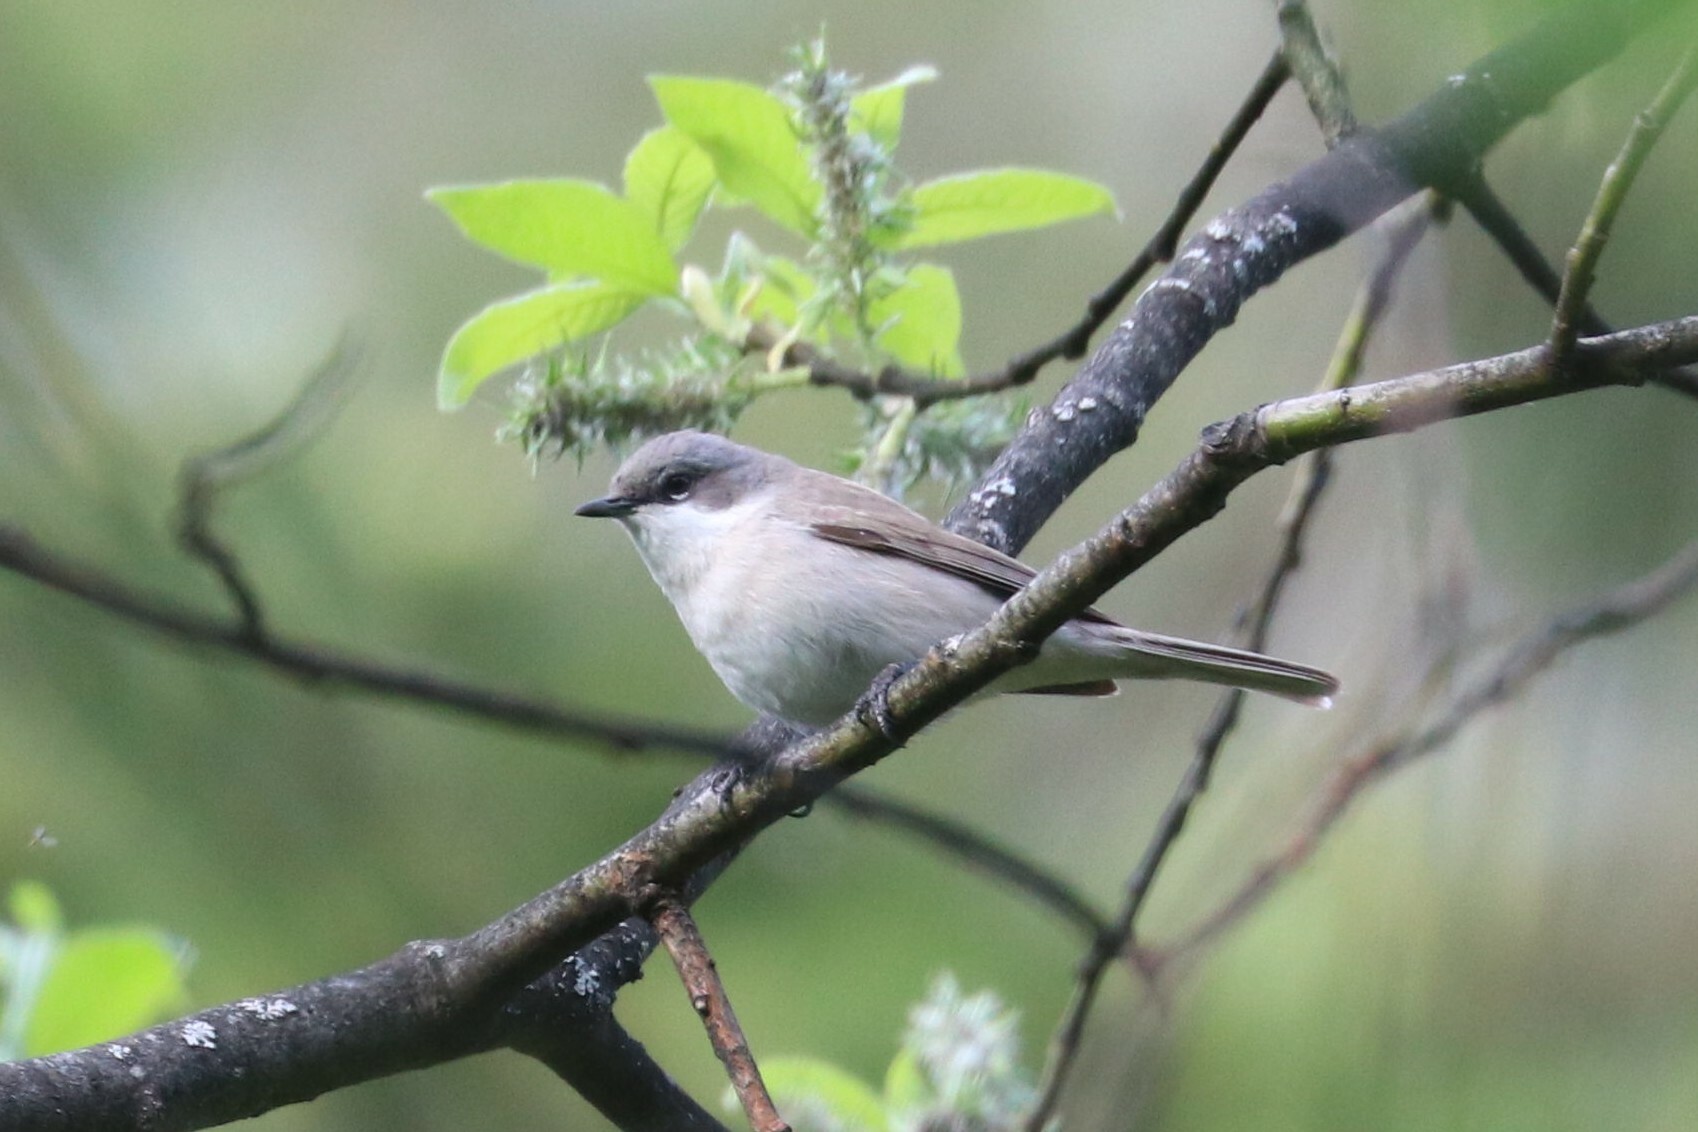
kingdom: Animalia
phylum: Chordata
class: Aves
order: Passeriformes
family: Sylviidae
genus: Sylvia
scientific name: Sylvia curruca
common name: Lesser whitethroat
